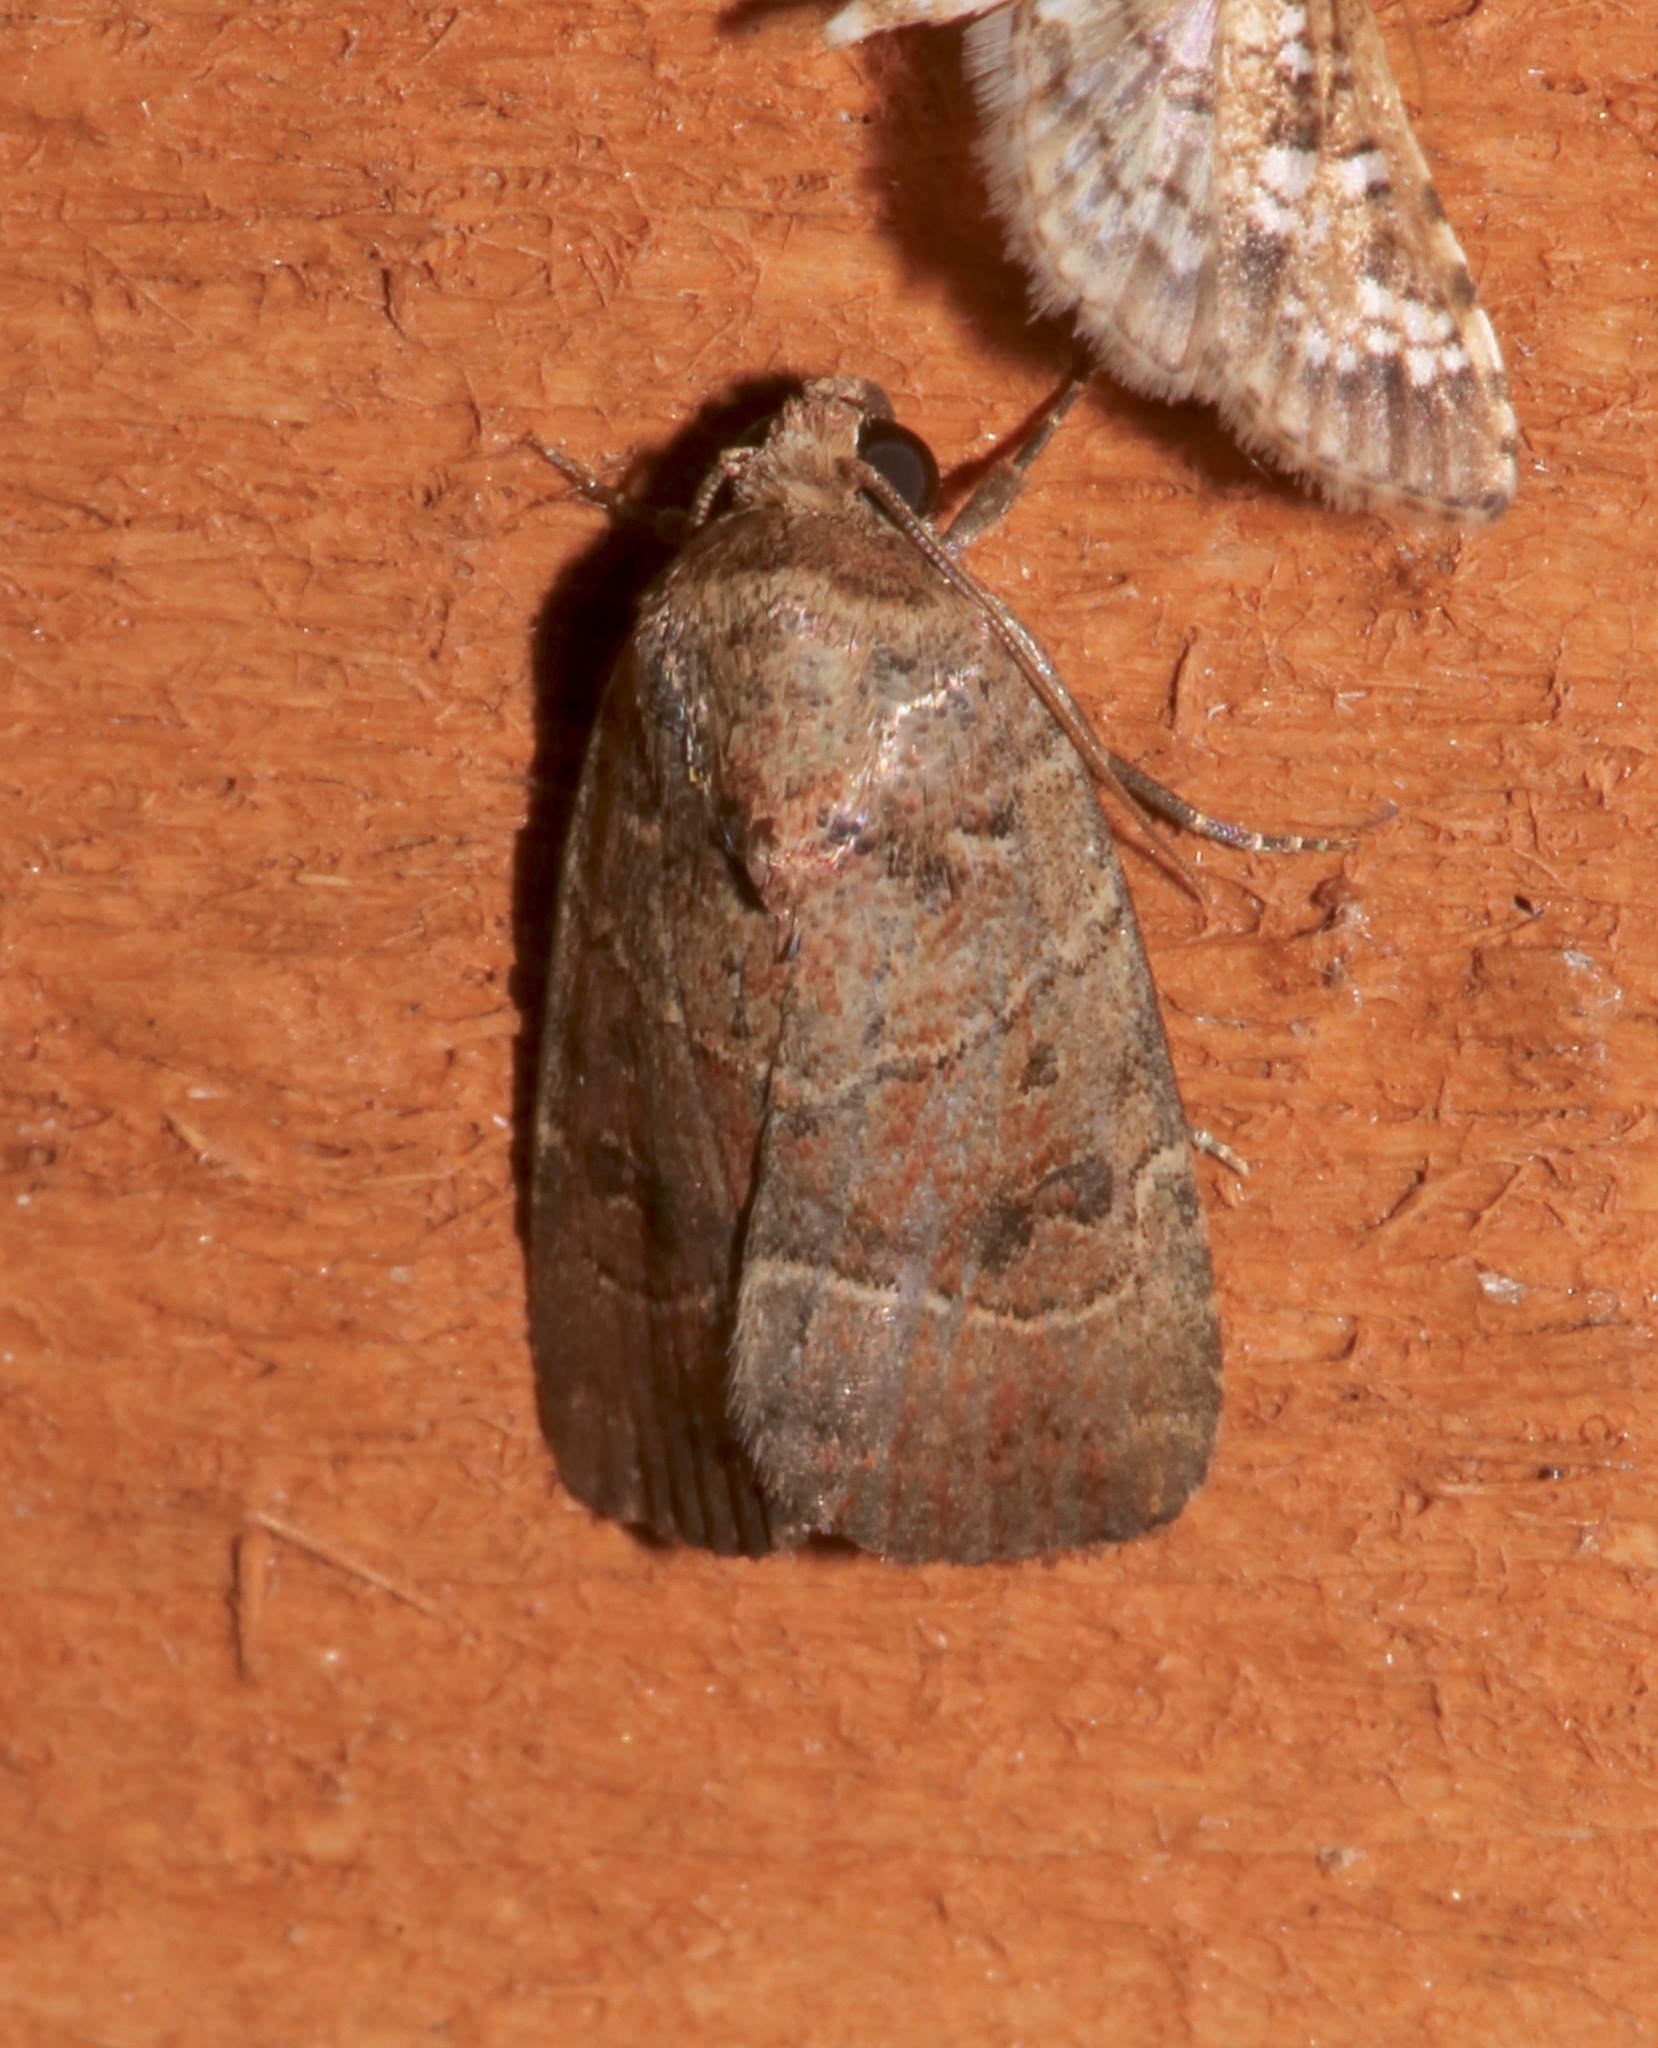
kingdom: Animalia
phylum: Arthropoda
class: Insecta
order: Lepidoptera
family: Noctuidae
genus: Elaphria
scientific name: Elaphria grata
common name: Grateful midget moth
